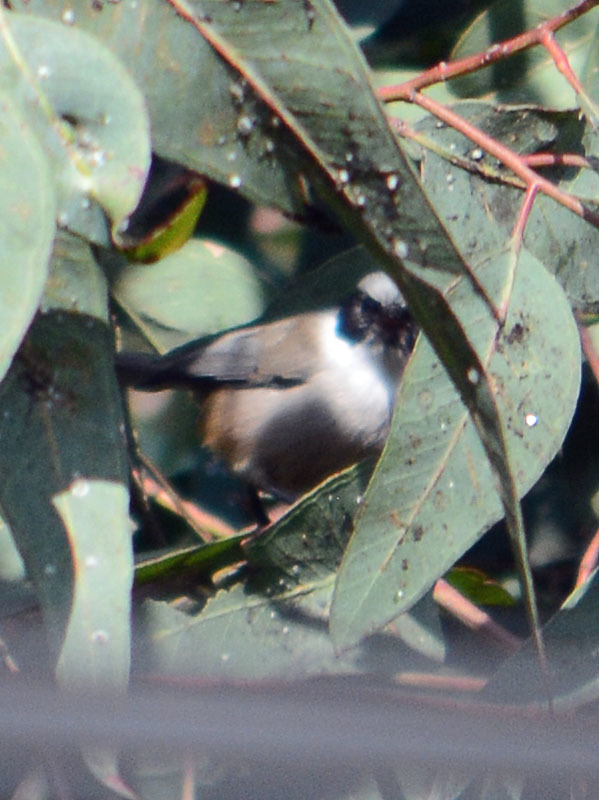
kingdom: Animalia
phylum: Chordata
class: Aves
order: Passeriformes
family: Aegithalidae
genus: Psaltriparus
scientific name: Psaltriparus minimus
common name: American bushtit
